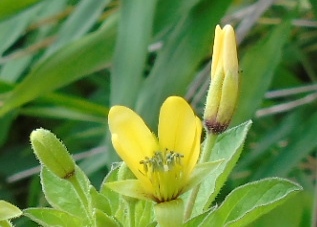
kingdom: Plantae
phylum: Tracheophyta
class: Magnoliopsida
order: Brassicales
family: Cleomaceae
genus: Arivela
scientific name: Arivela viscosa
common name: Asian spiderflower
